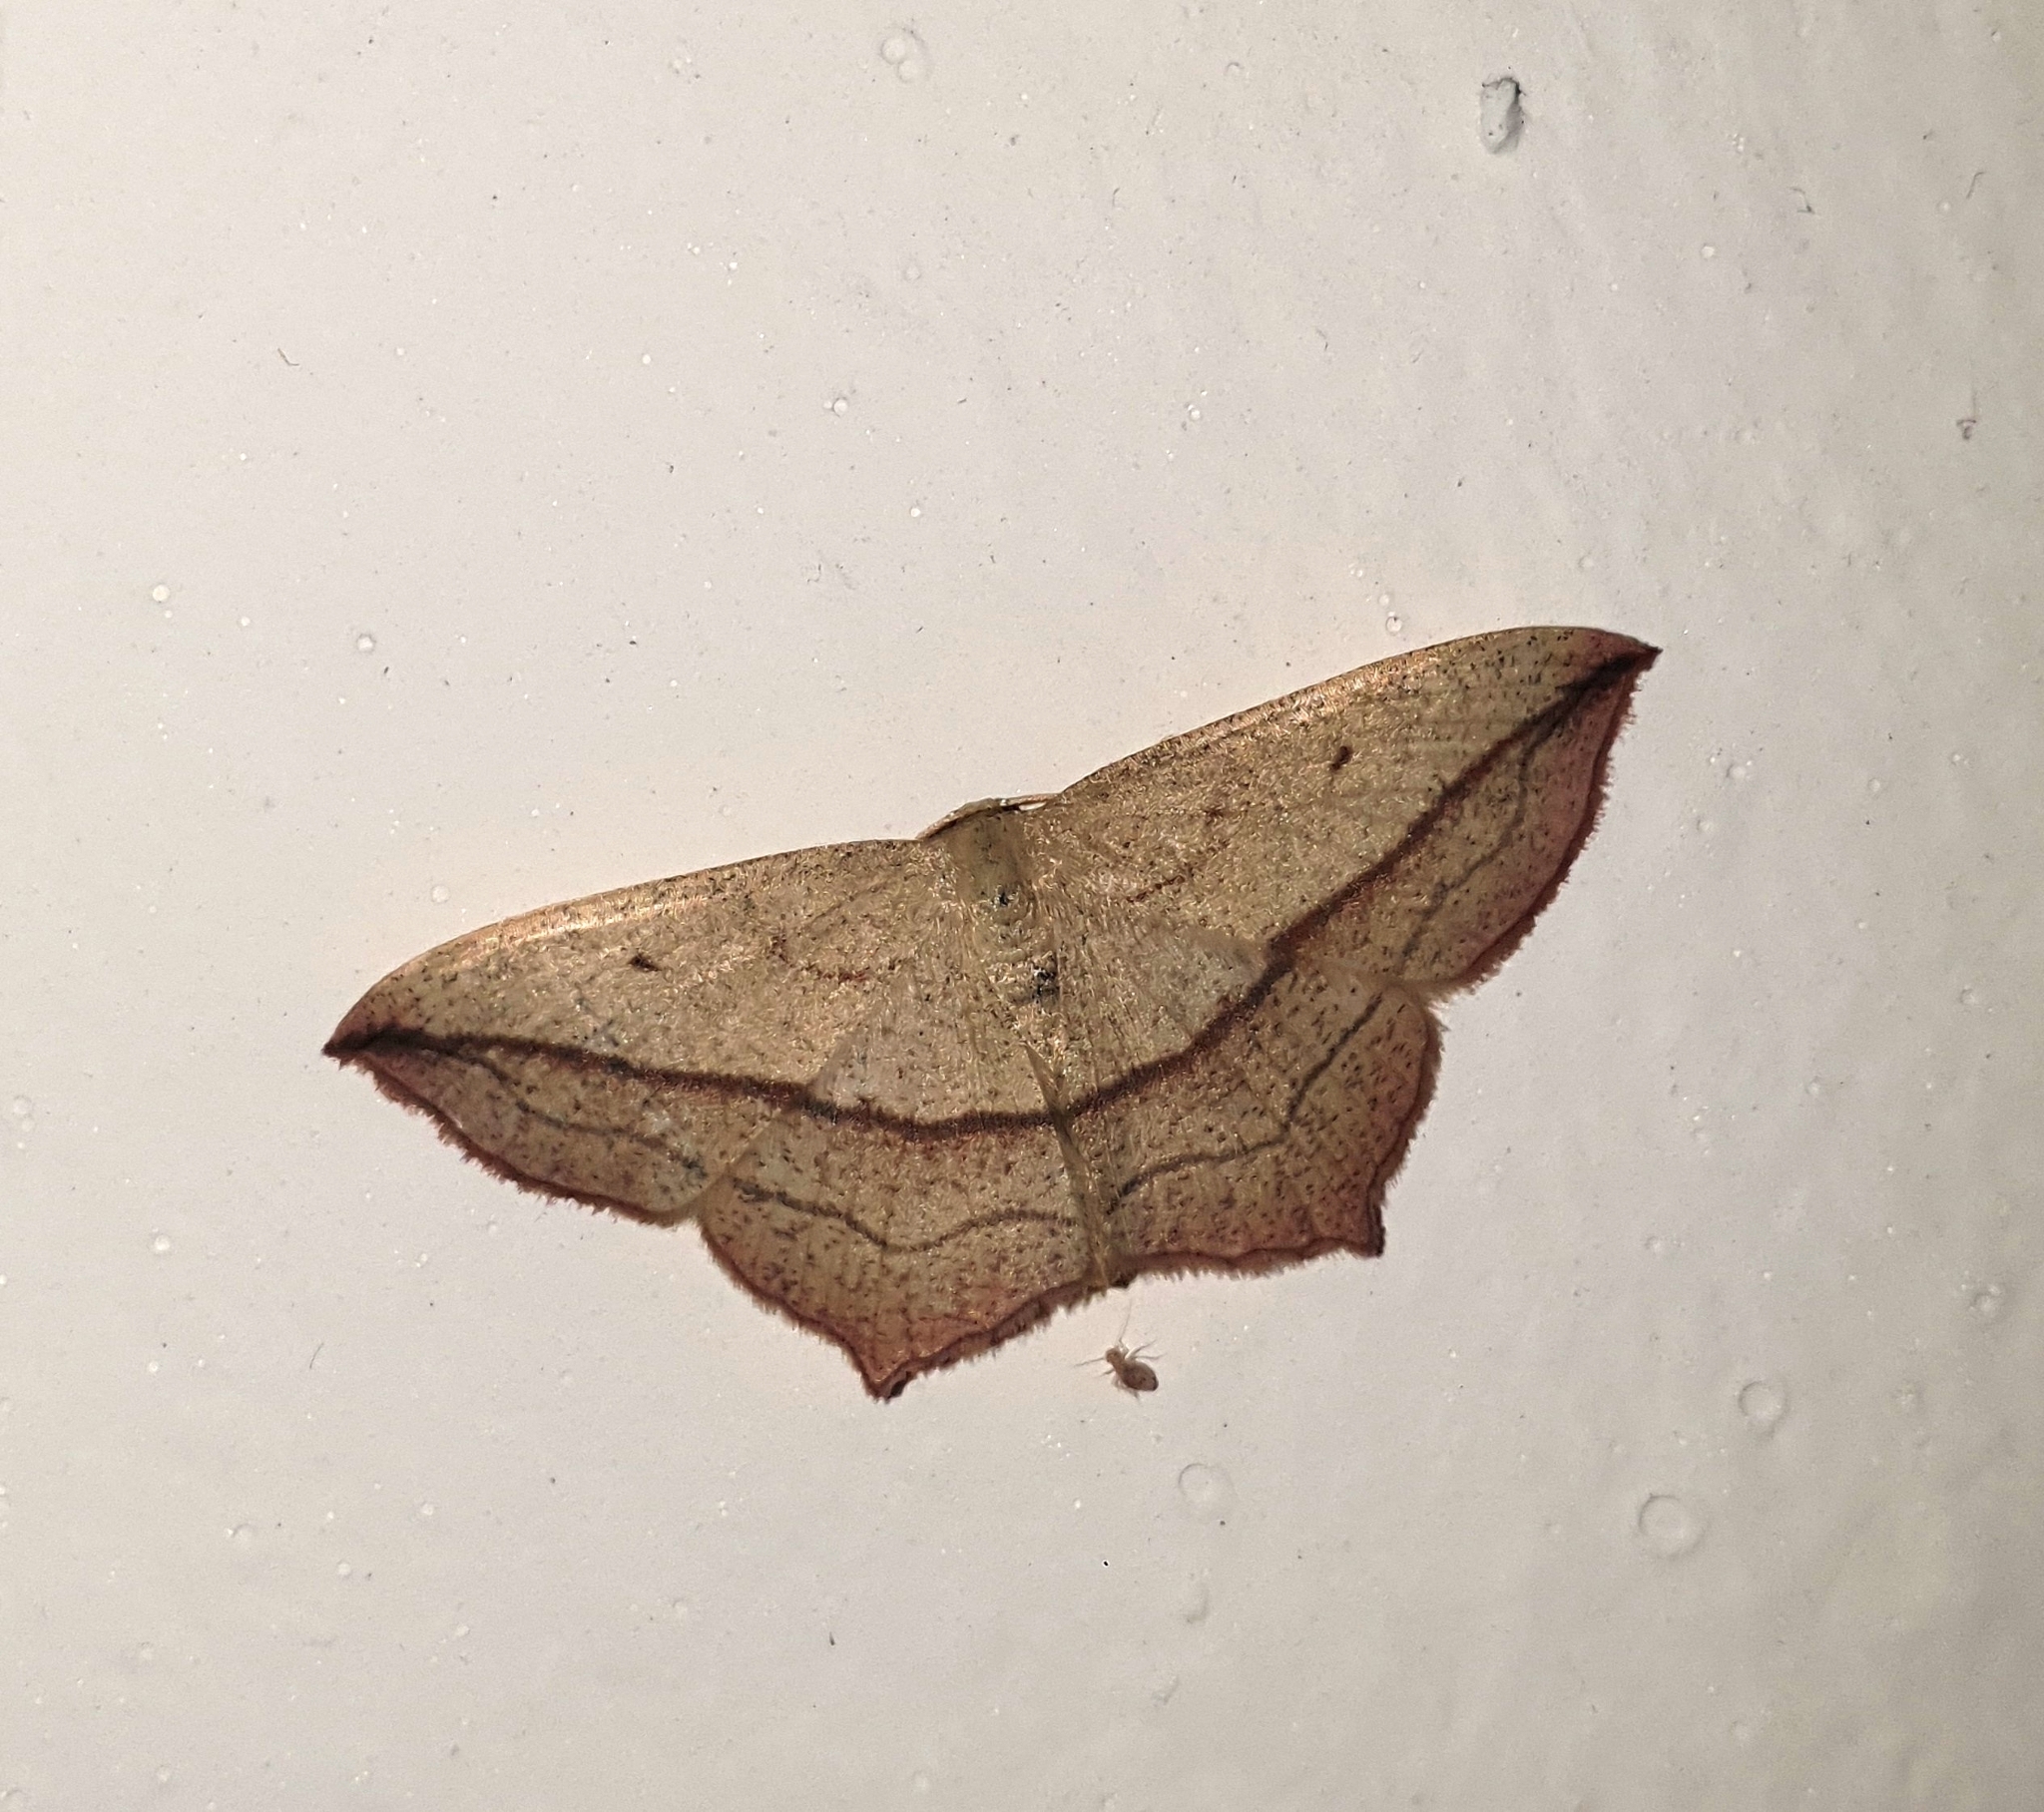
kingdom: Animalia
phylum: Arthropoda
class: Insecta
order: Lepidoptera
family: Geometridae
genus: Timandra
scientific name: Timandra comae
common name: Blood-vein
